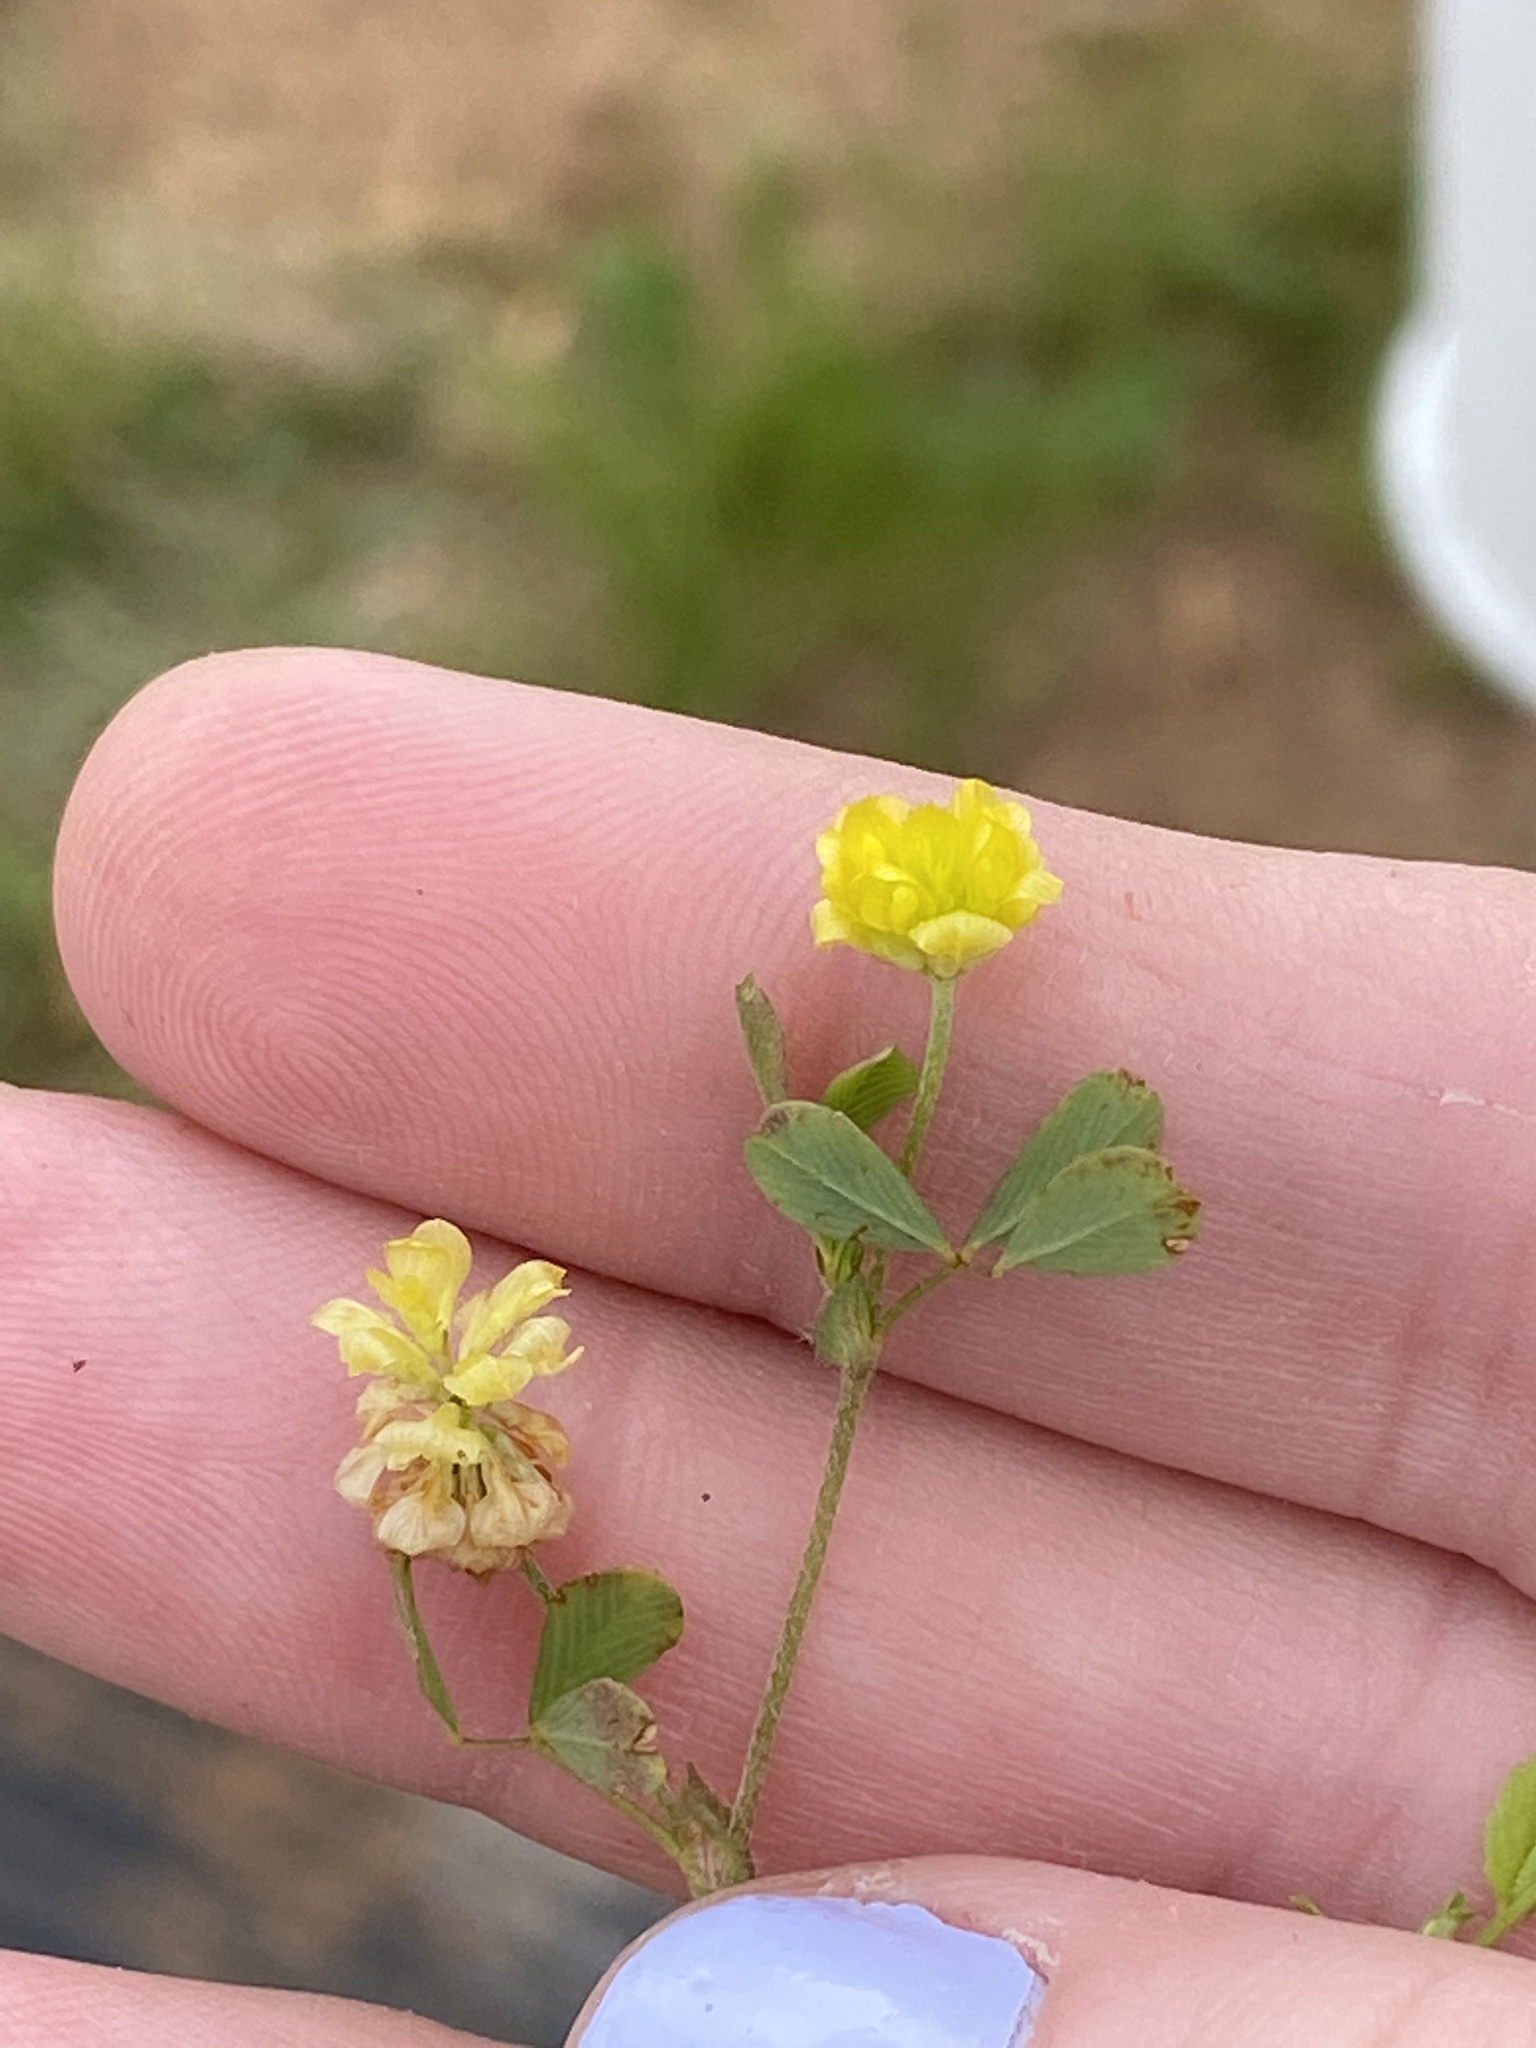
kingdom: Plantae
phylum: Tracheophyta
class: Magnoliopsida
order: Fabales
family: Fabaceae
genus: Trifolium
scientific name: Trifolium campestre
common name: Field clover
